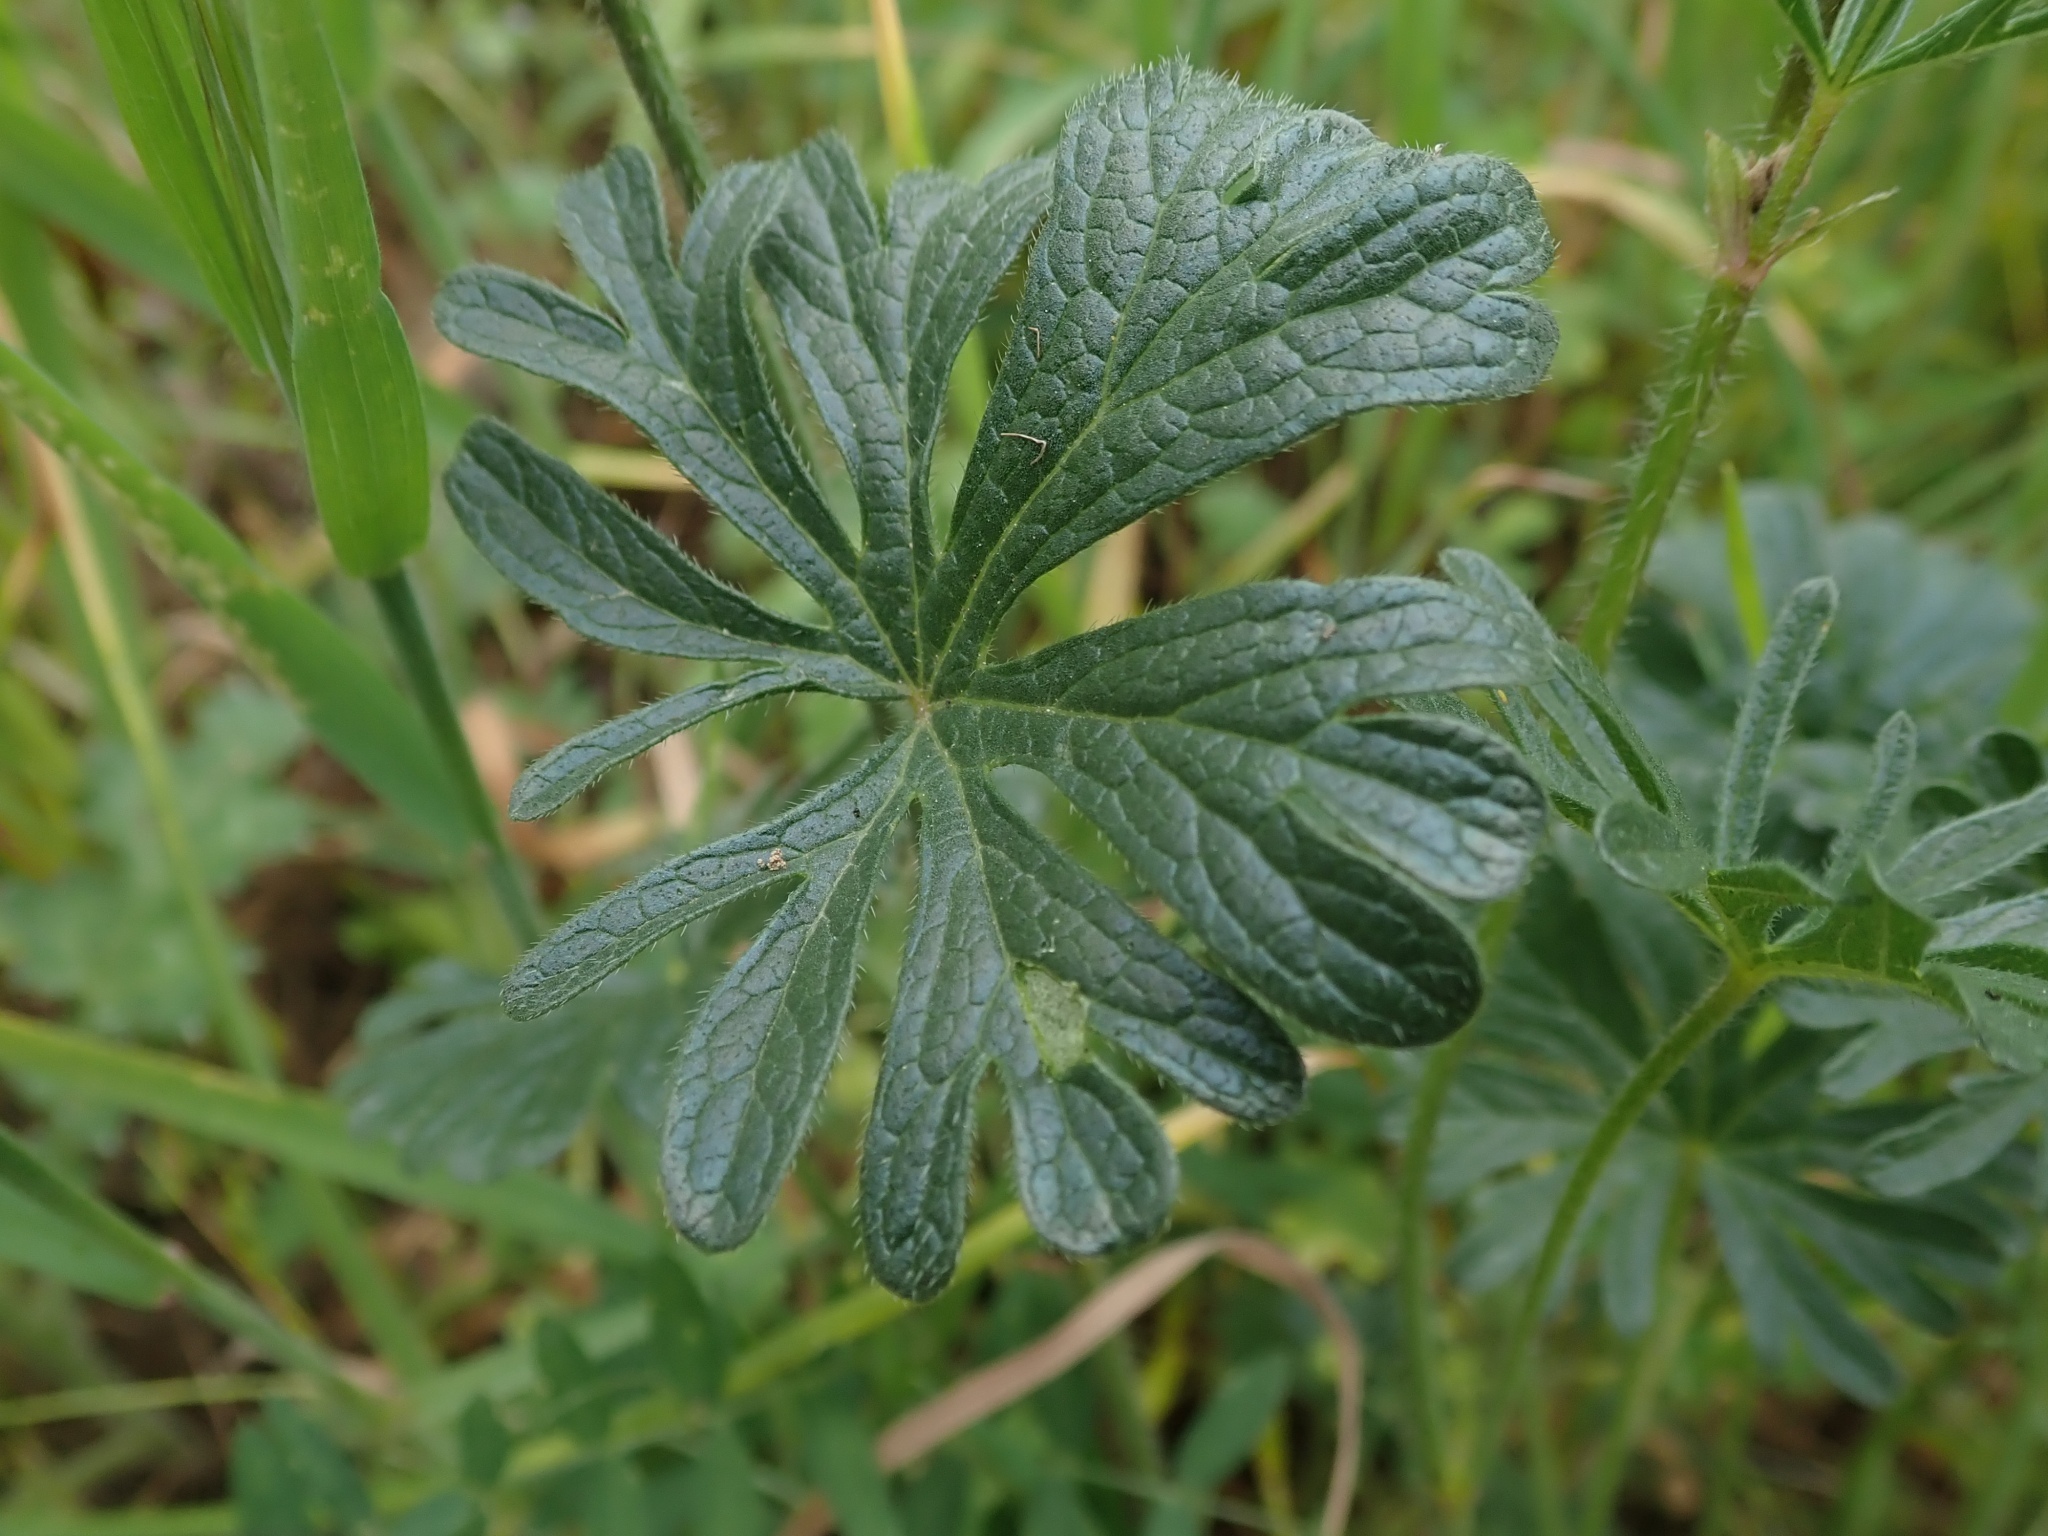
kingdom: Plantae
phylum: Tracheophyta
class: Magnoliopsida
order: Malvales
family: Malvaceae
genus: Sidalcea
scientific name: Sidalcea malviflora
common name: Greek mallow
